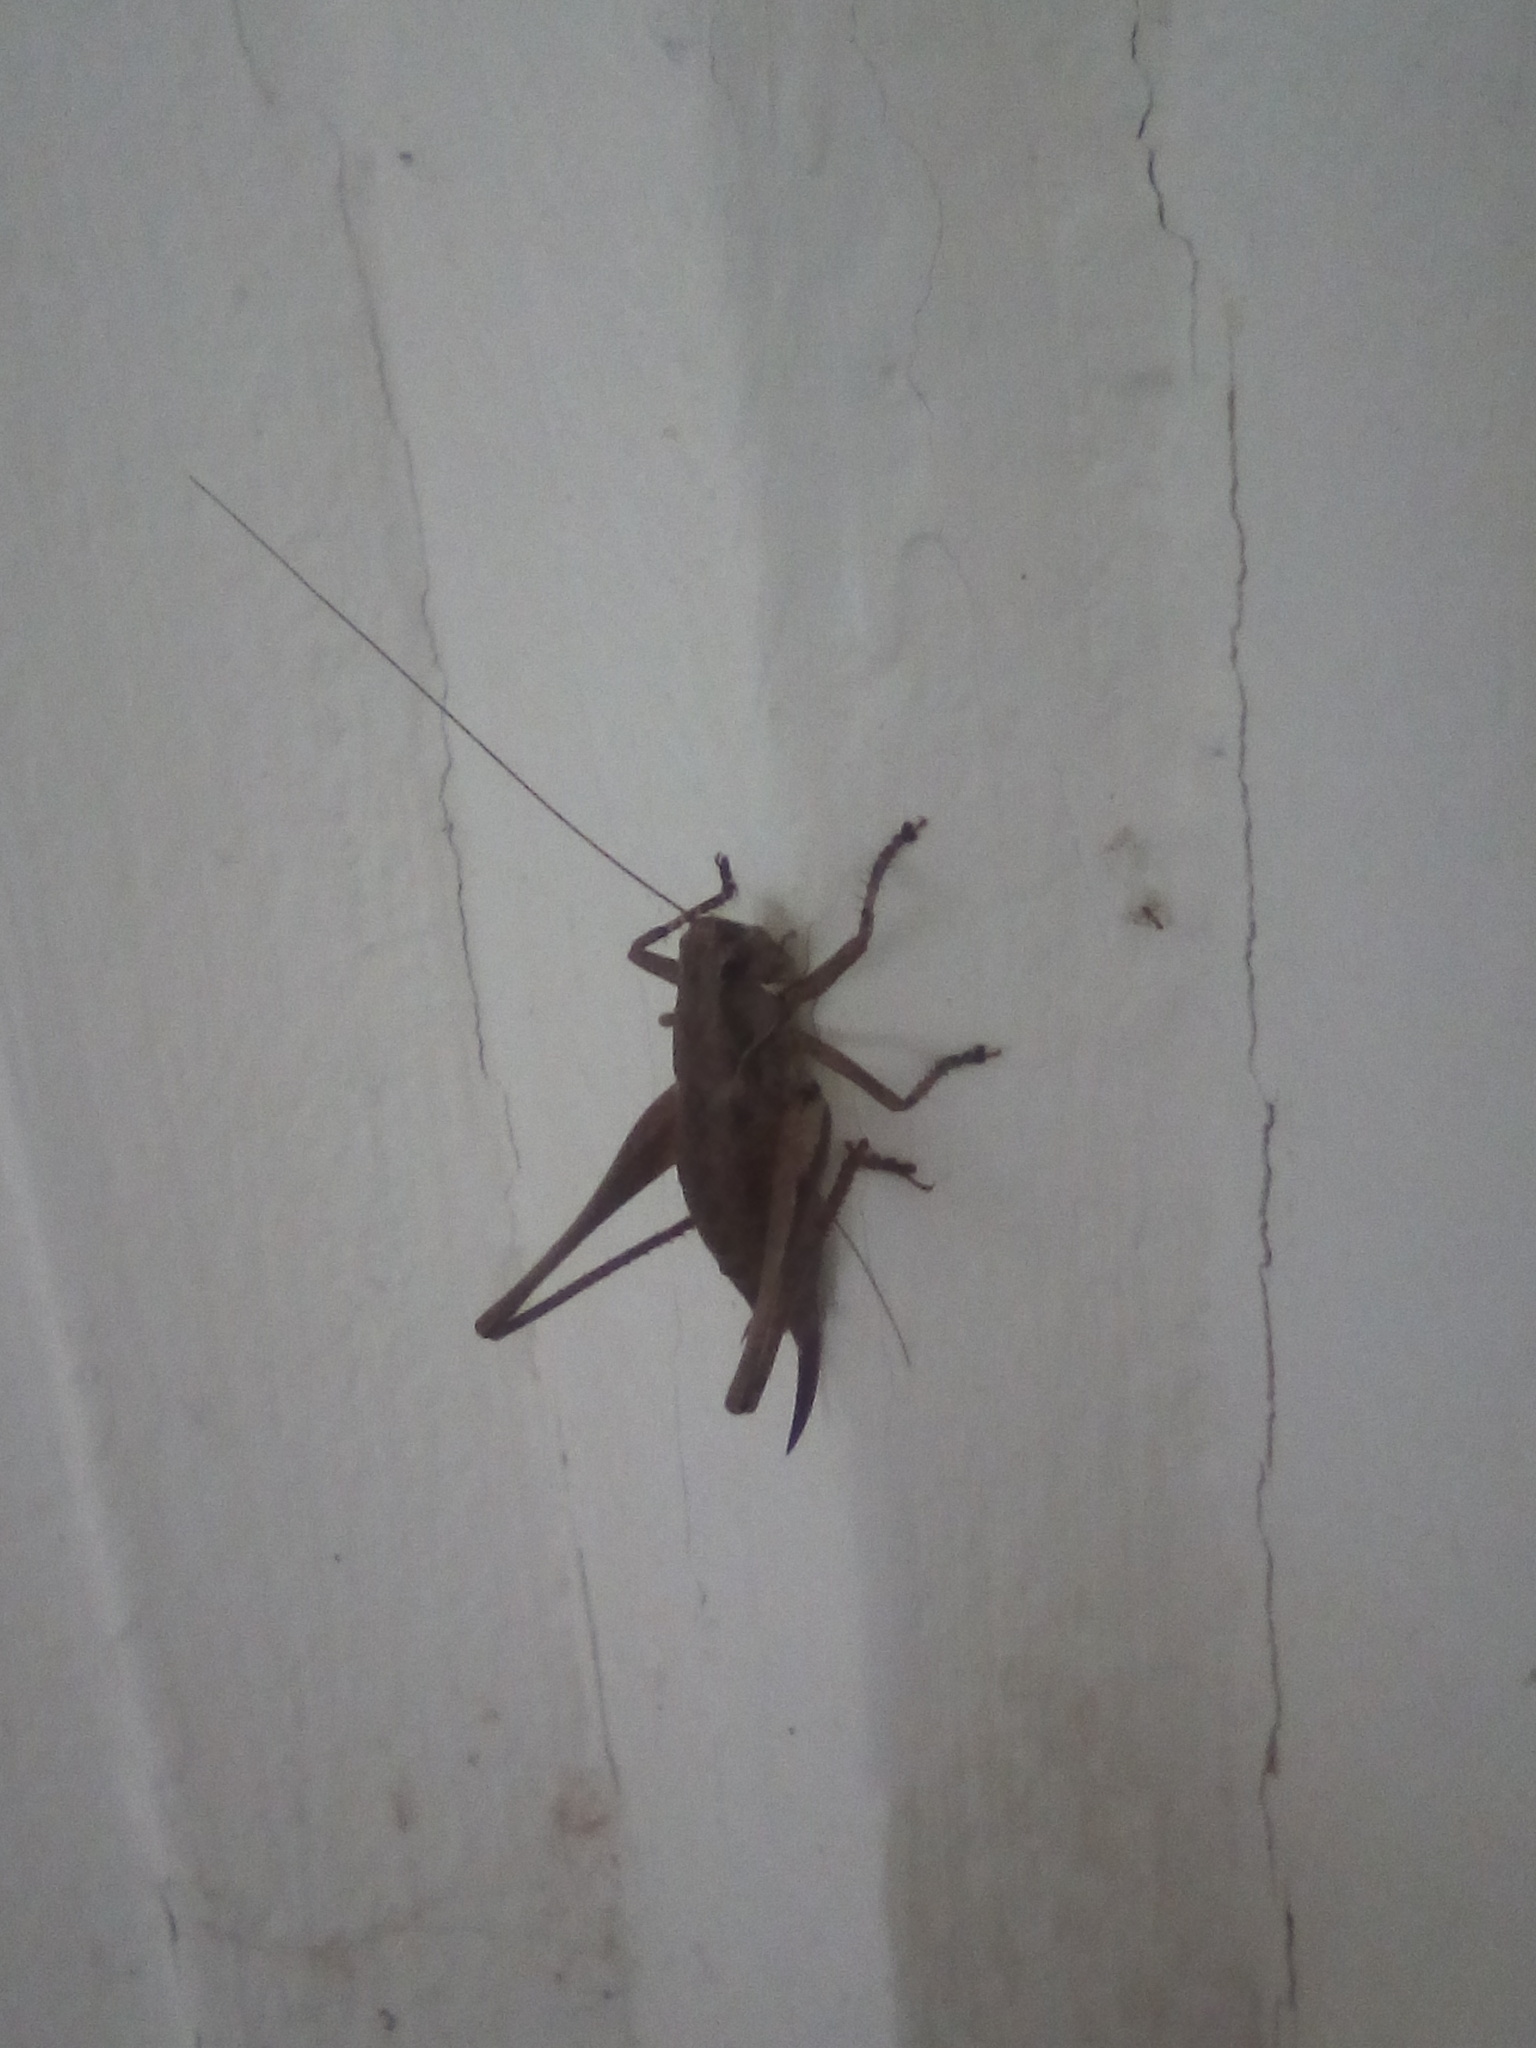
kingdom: Animalia
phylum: Arthropoda
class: Insecta
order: Orthoptera
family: Tettigoniidae
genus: Pholidoptera
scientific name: Pholidoptera griseoaptera
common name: Dark bush-cricket
